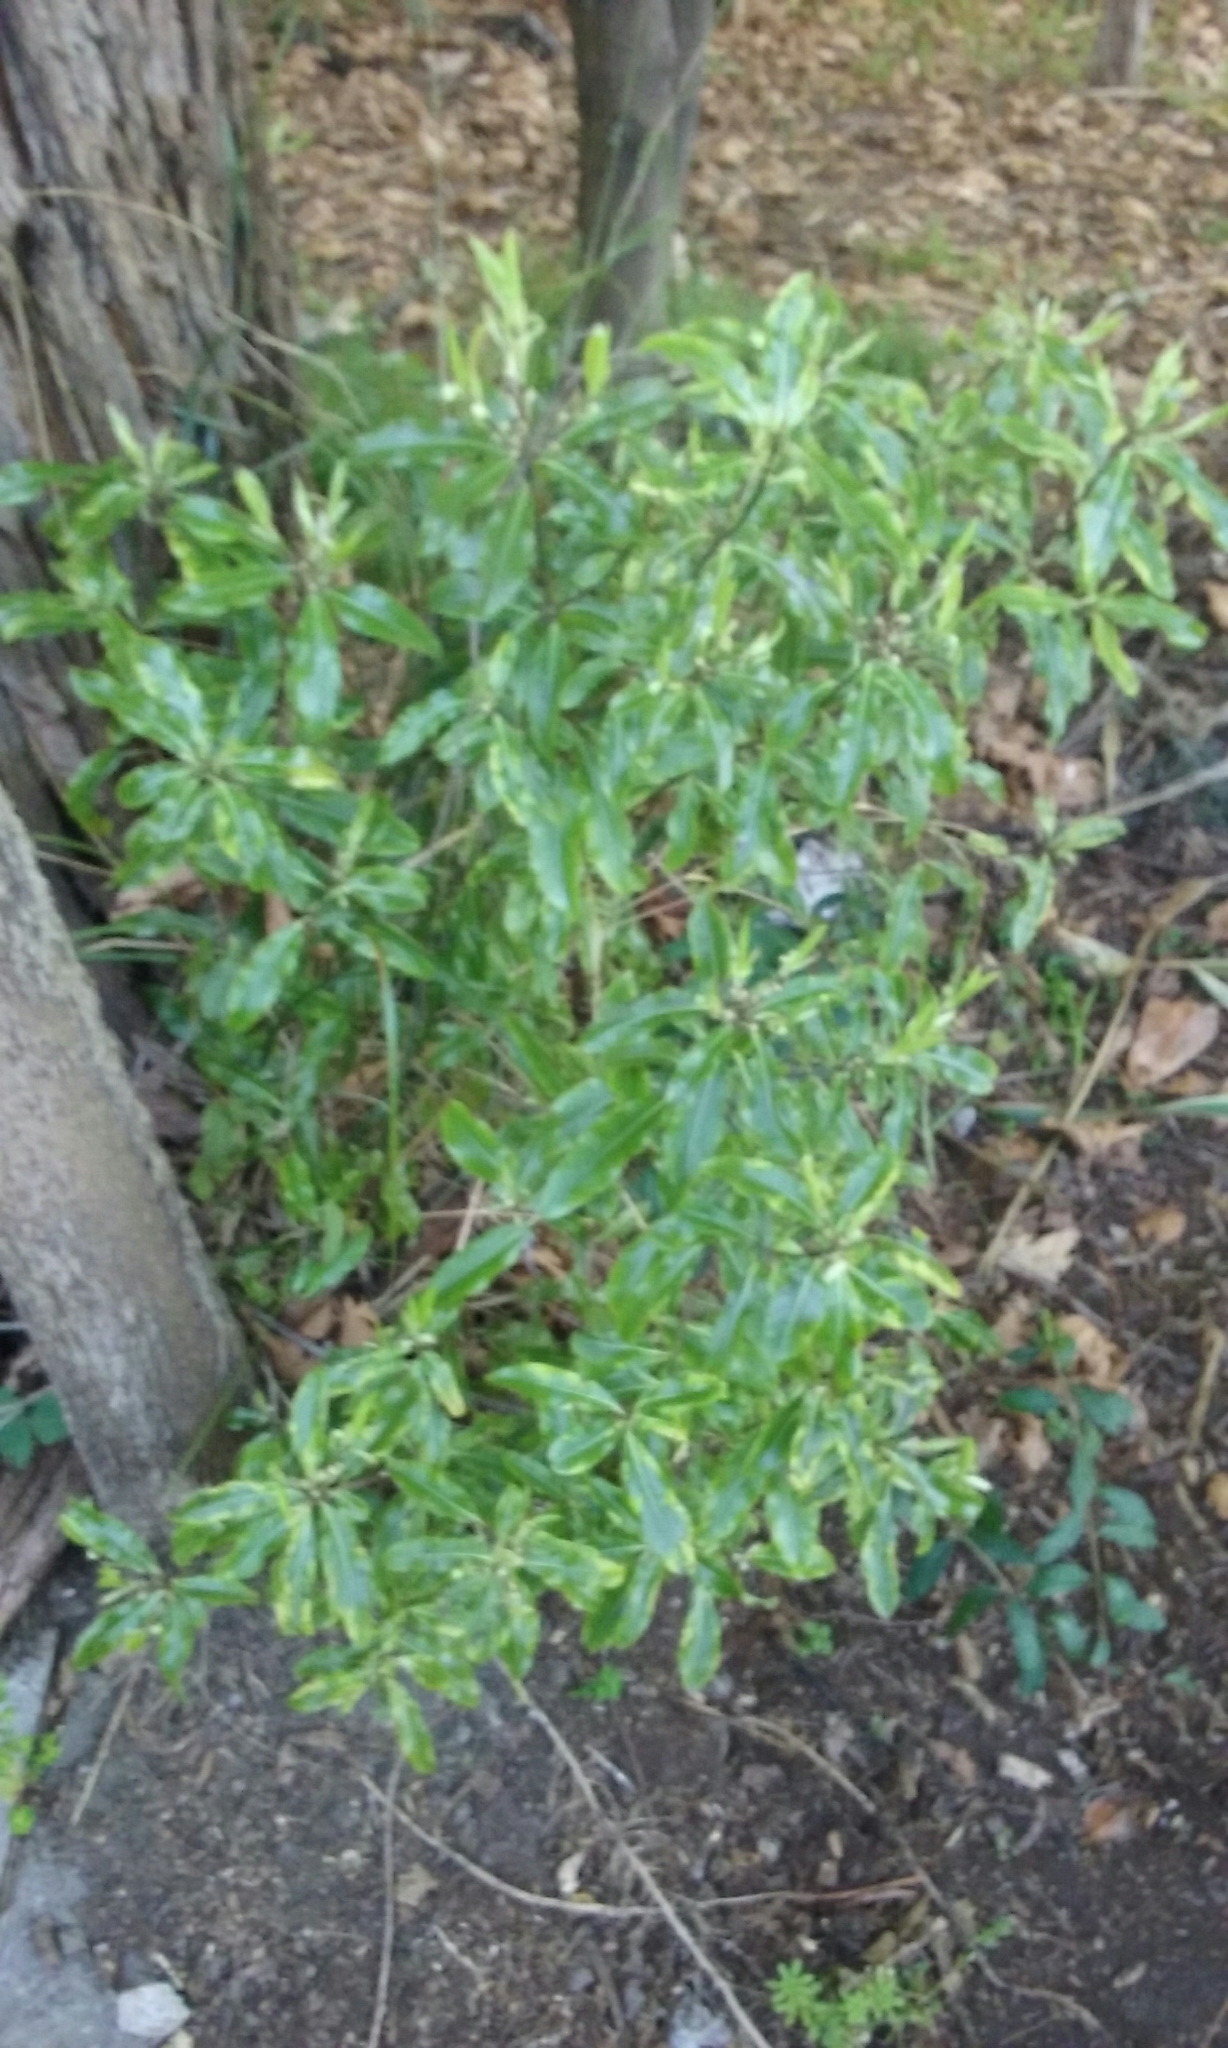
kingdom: Plantae
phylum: Tracheophyta
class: Magnoliopsida
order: Apiales
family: Pittosporaceae
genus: Pittosporum
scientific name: Pittosporum eugenioides
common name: Lemonwood
